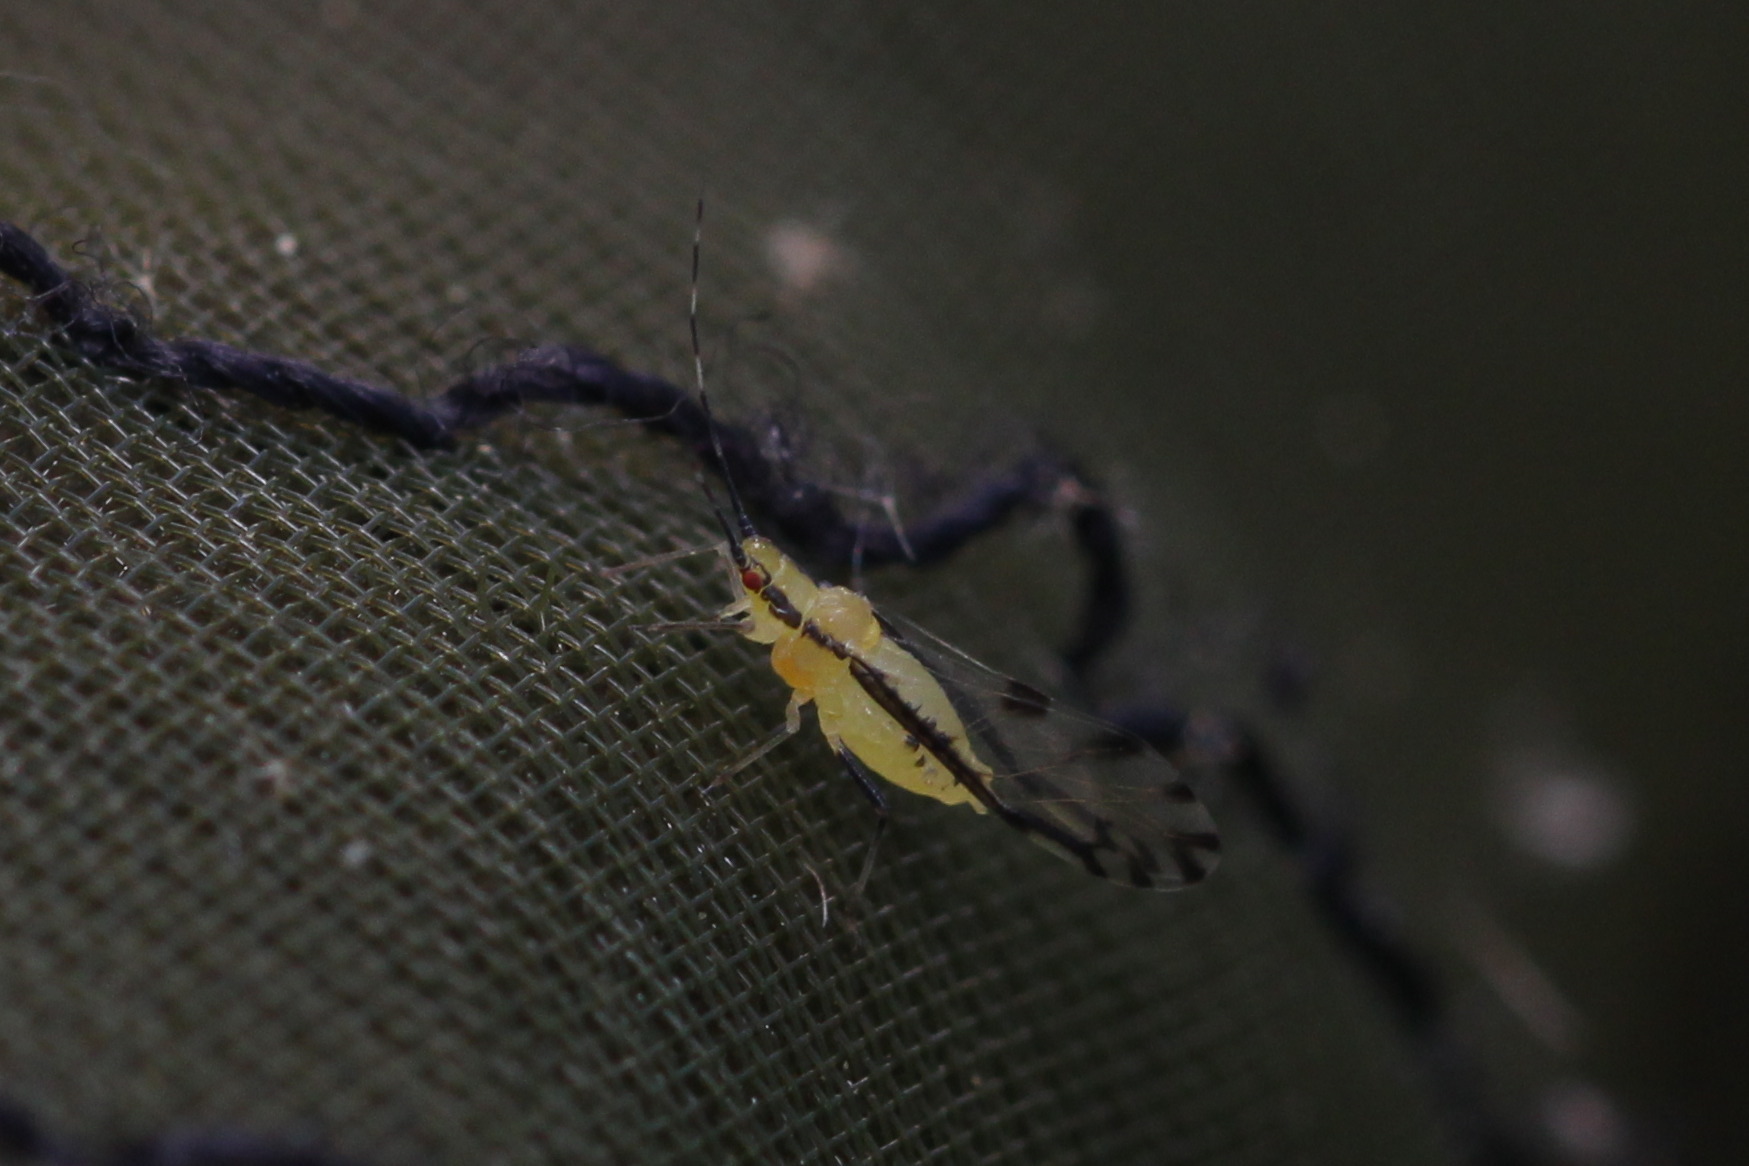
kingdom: Animalia
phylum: Arthropoda
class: Insecta
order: Hemiptera
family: Aphididae
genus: Eucallipterus
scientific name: Eucallipterus tiliae
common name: Aphid
